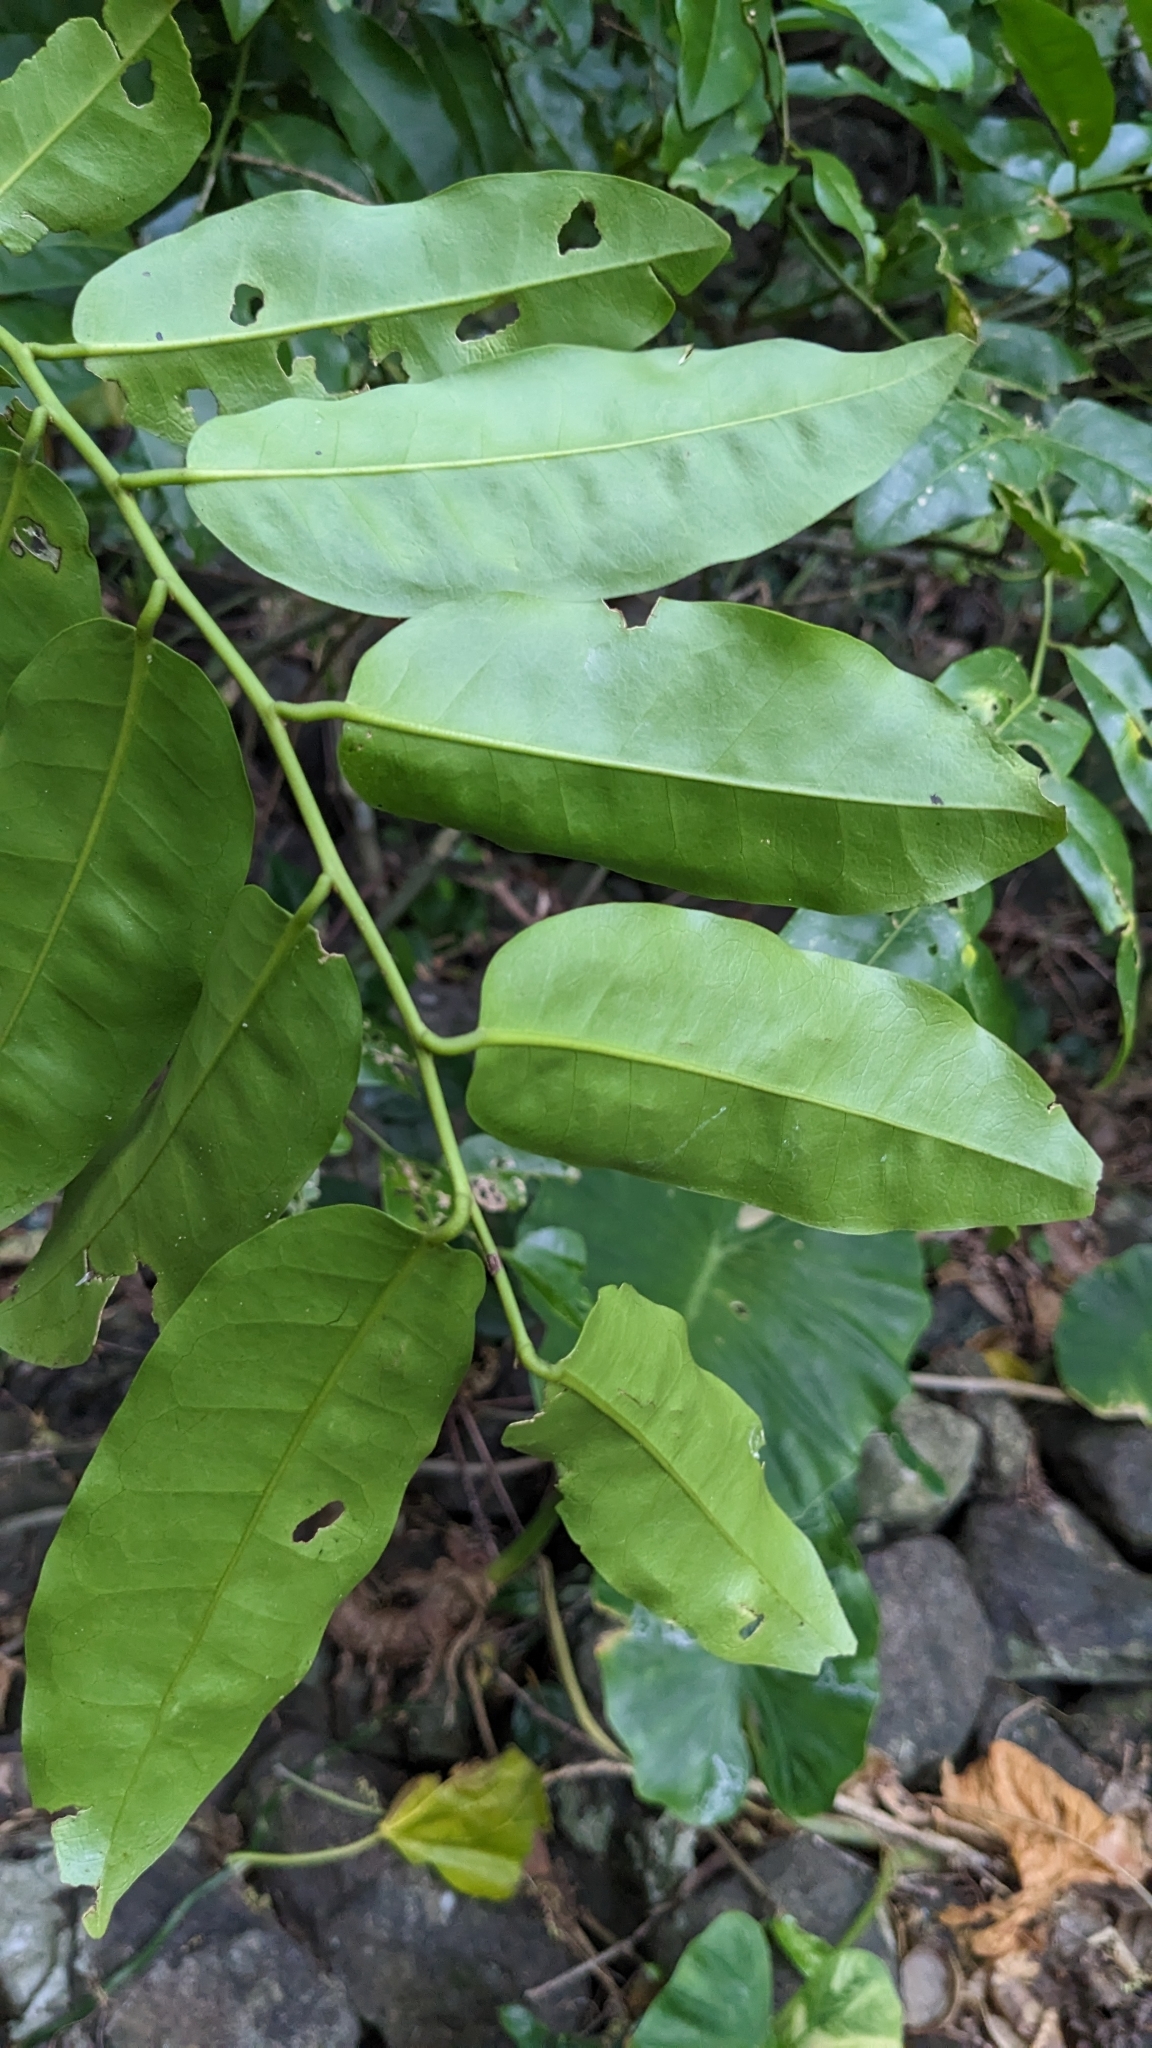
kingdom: Plantae
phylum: Tracheophyta
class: Magnoliopsida
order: Brassicales
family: Capparaceae
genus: Capparis
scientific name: Capparis lanceolaris
